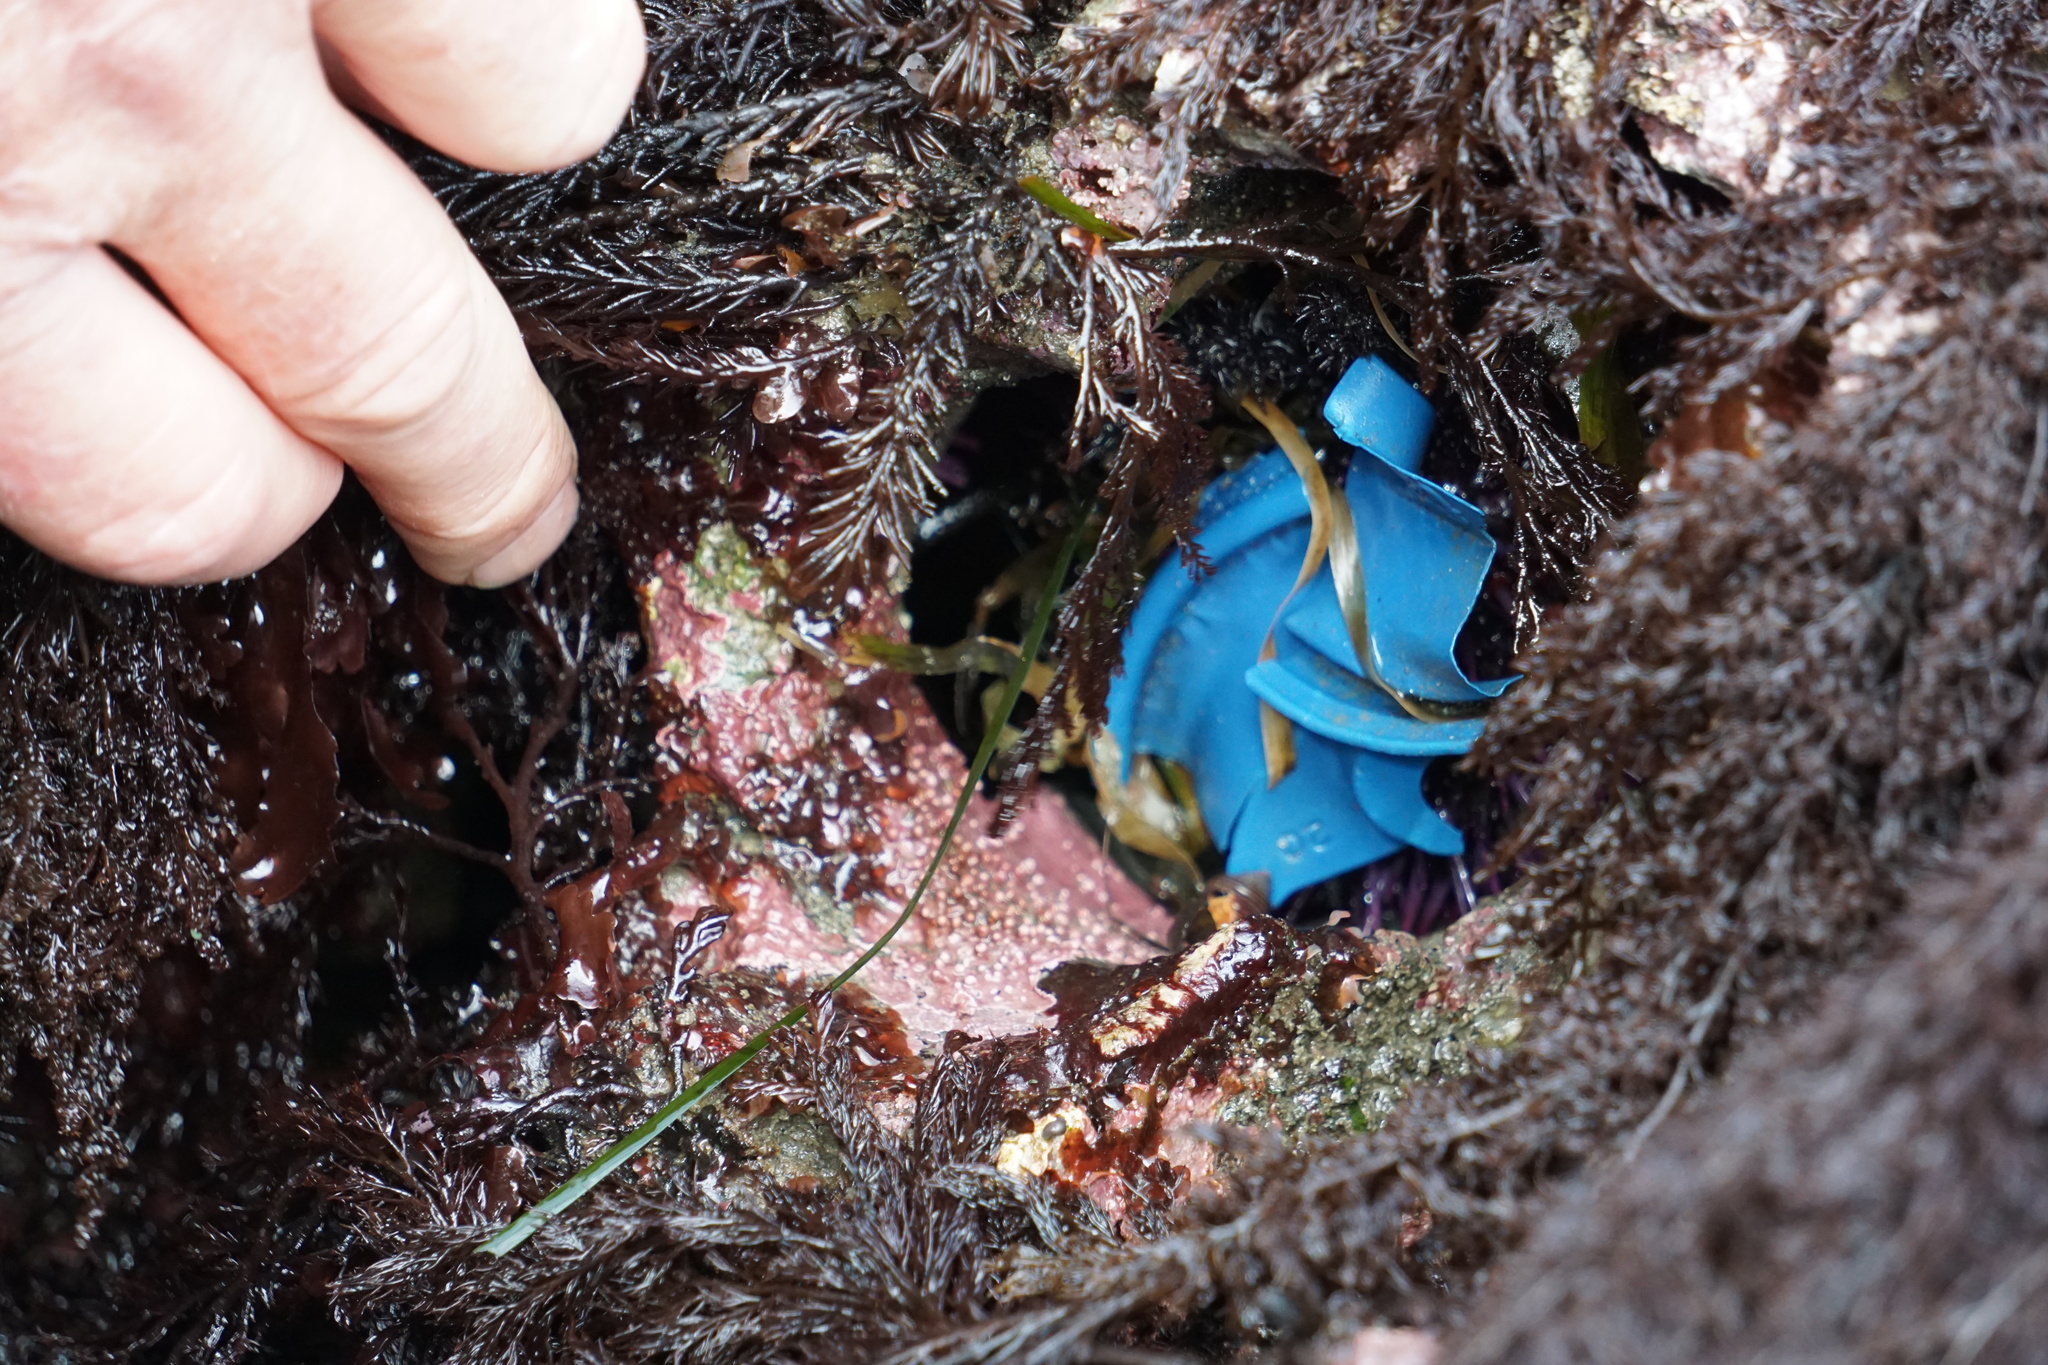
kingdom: Animalia
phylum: Echinodermata
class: Echinoidea
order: Camarodonta
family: Strongylocentrotidae
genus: Strongylocentrotus
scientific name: Strongylocentrotus purpuratus
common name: Purple sea urchin
